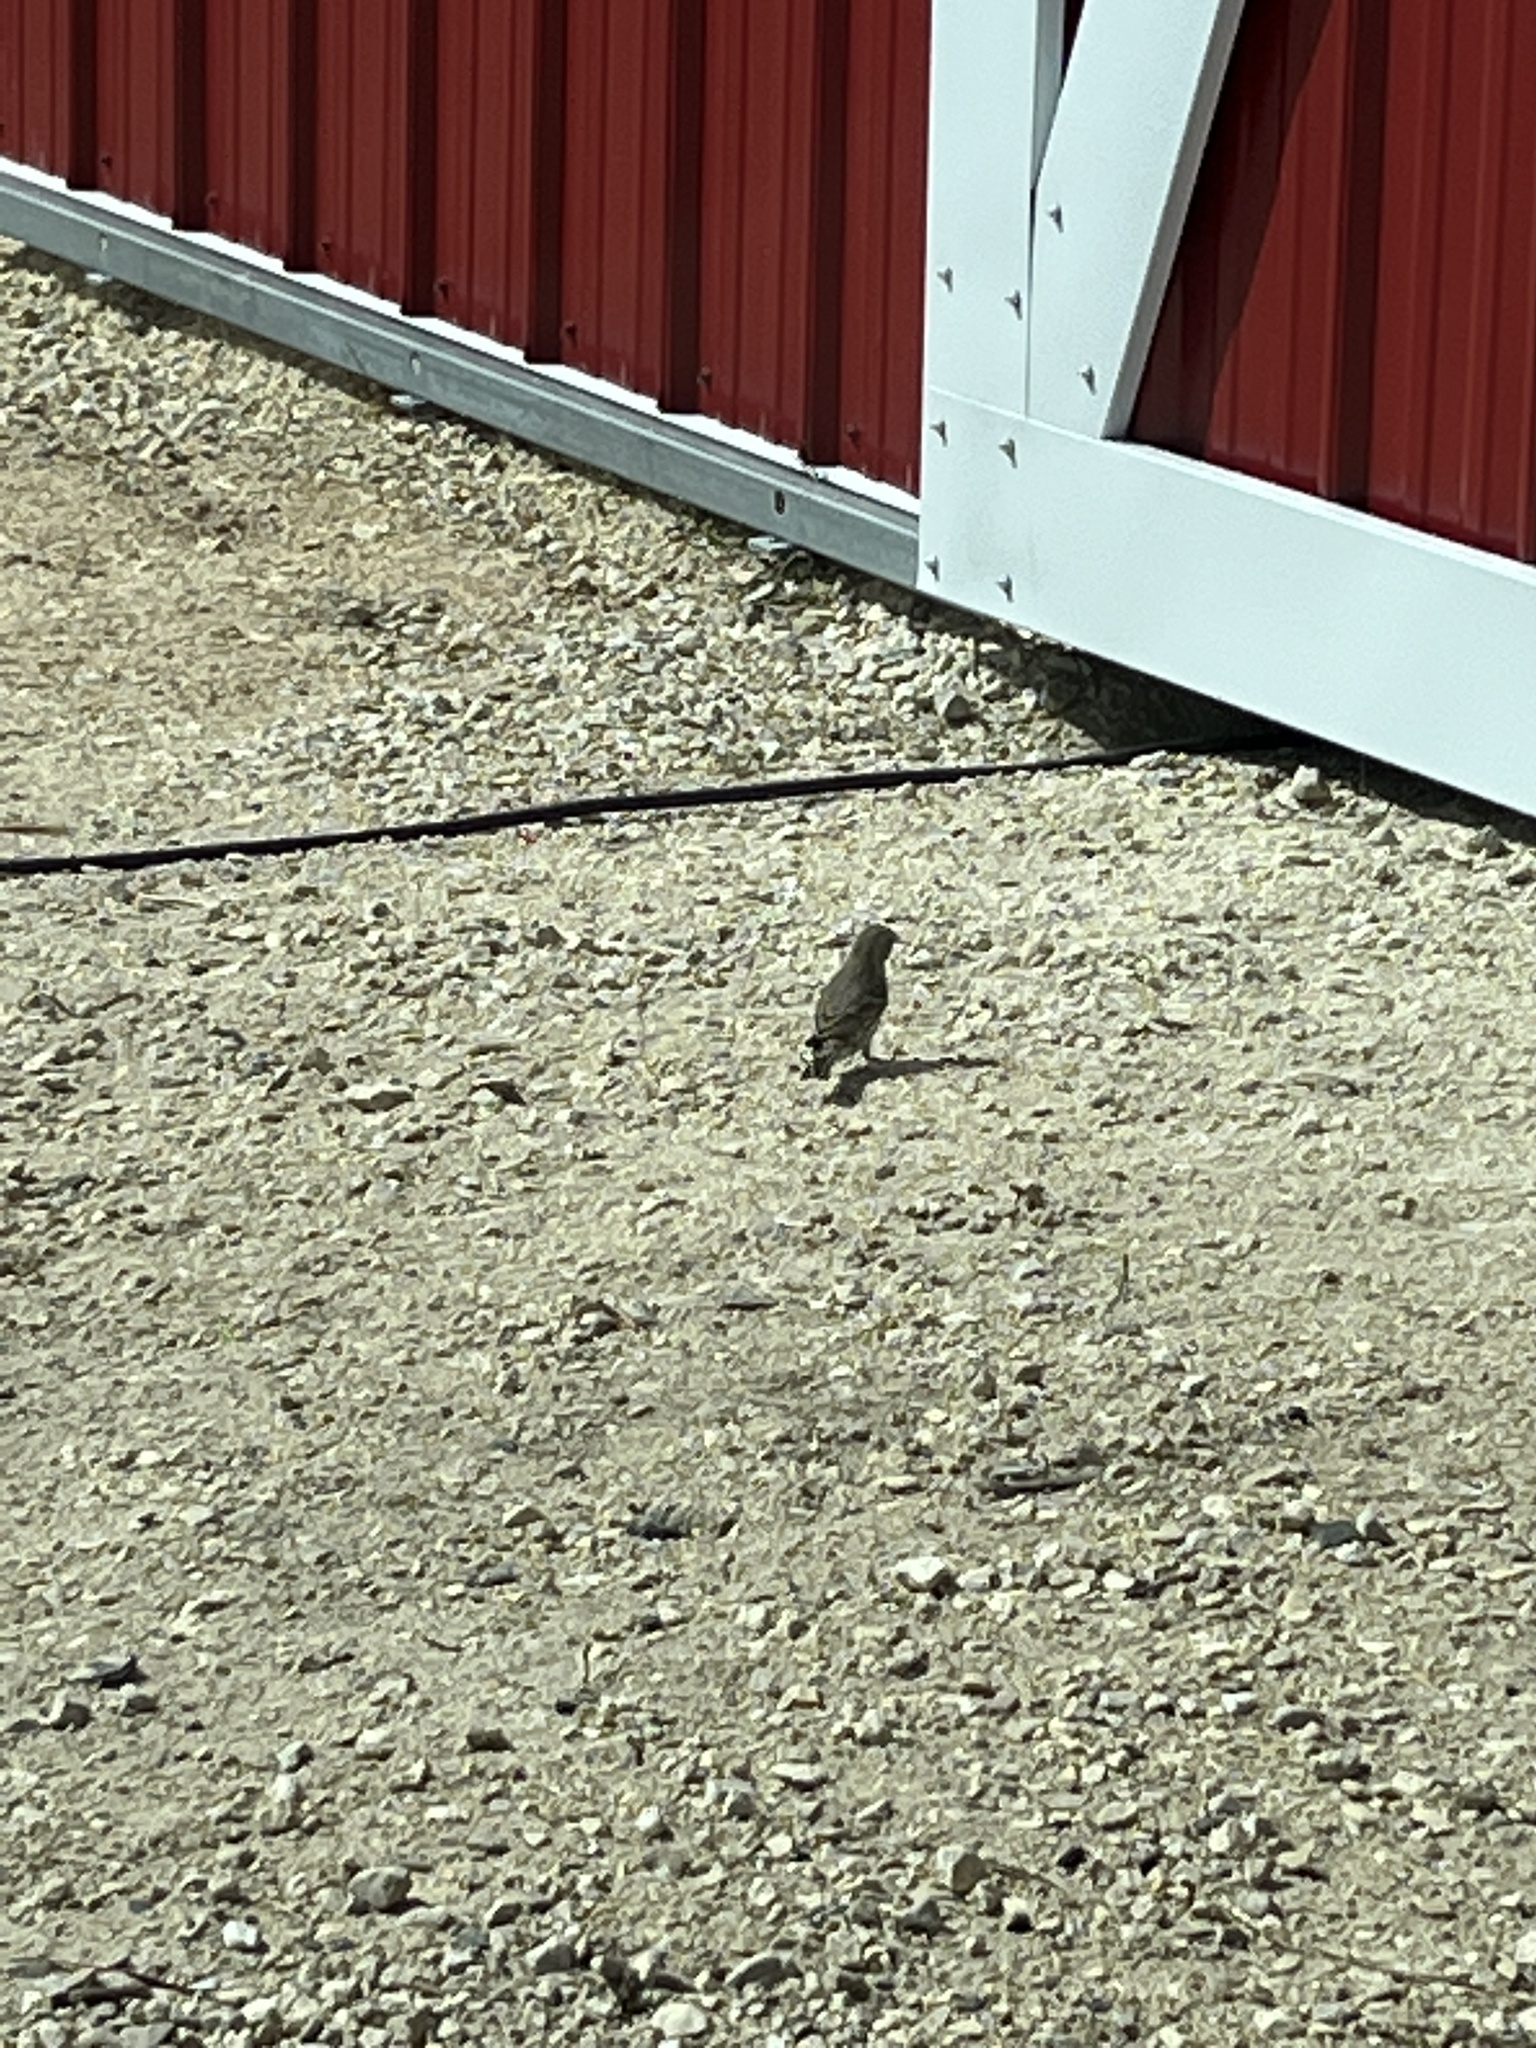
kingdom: Animalia
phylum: Chordata
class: Aves
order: Passeriformes
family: Fringillidae
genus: Haemorhous
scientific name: Haemorhous mexicanus
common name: House finch
